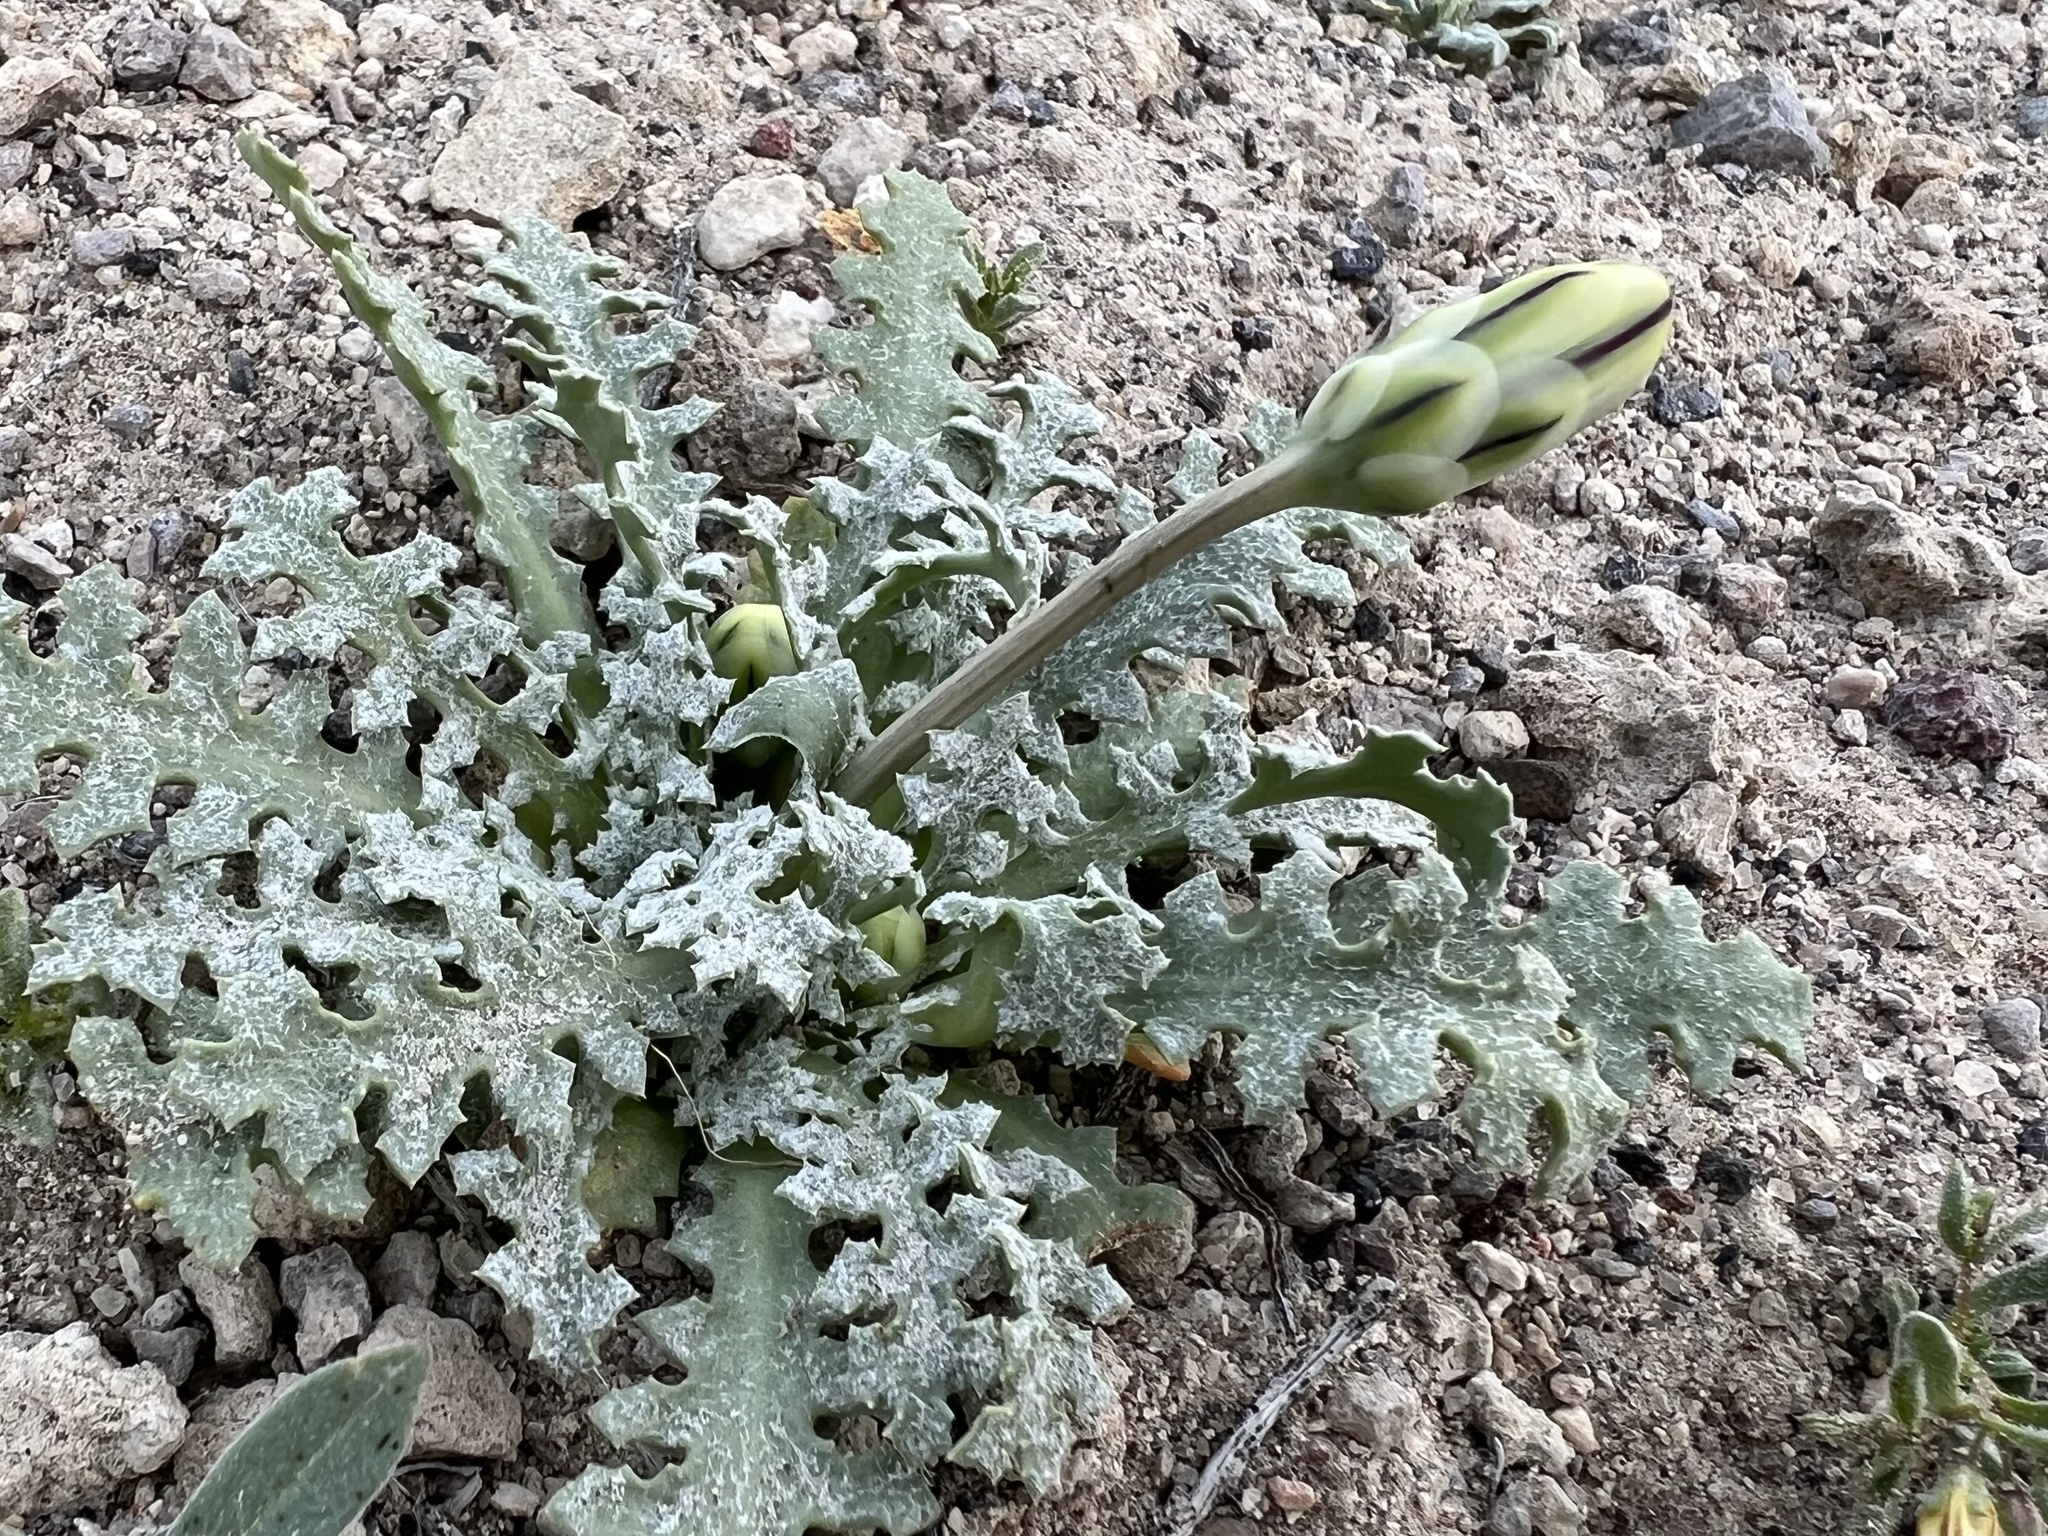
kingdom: Plantae
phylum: Tracheophyta
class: Magnoliopsida
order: Asterales
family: Asteraceae
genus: Anisocoma
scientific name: Anisocoma acaulis
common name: Scalebud
